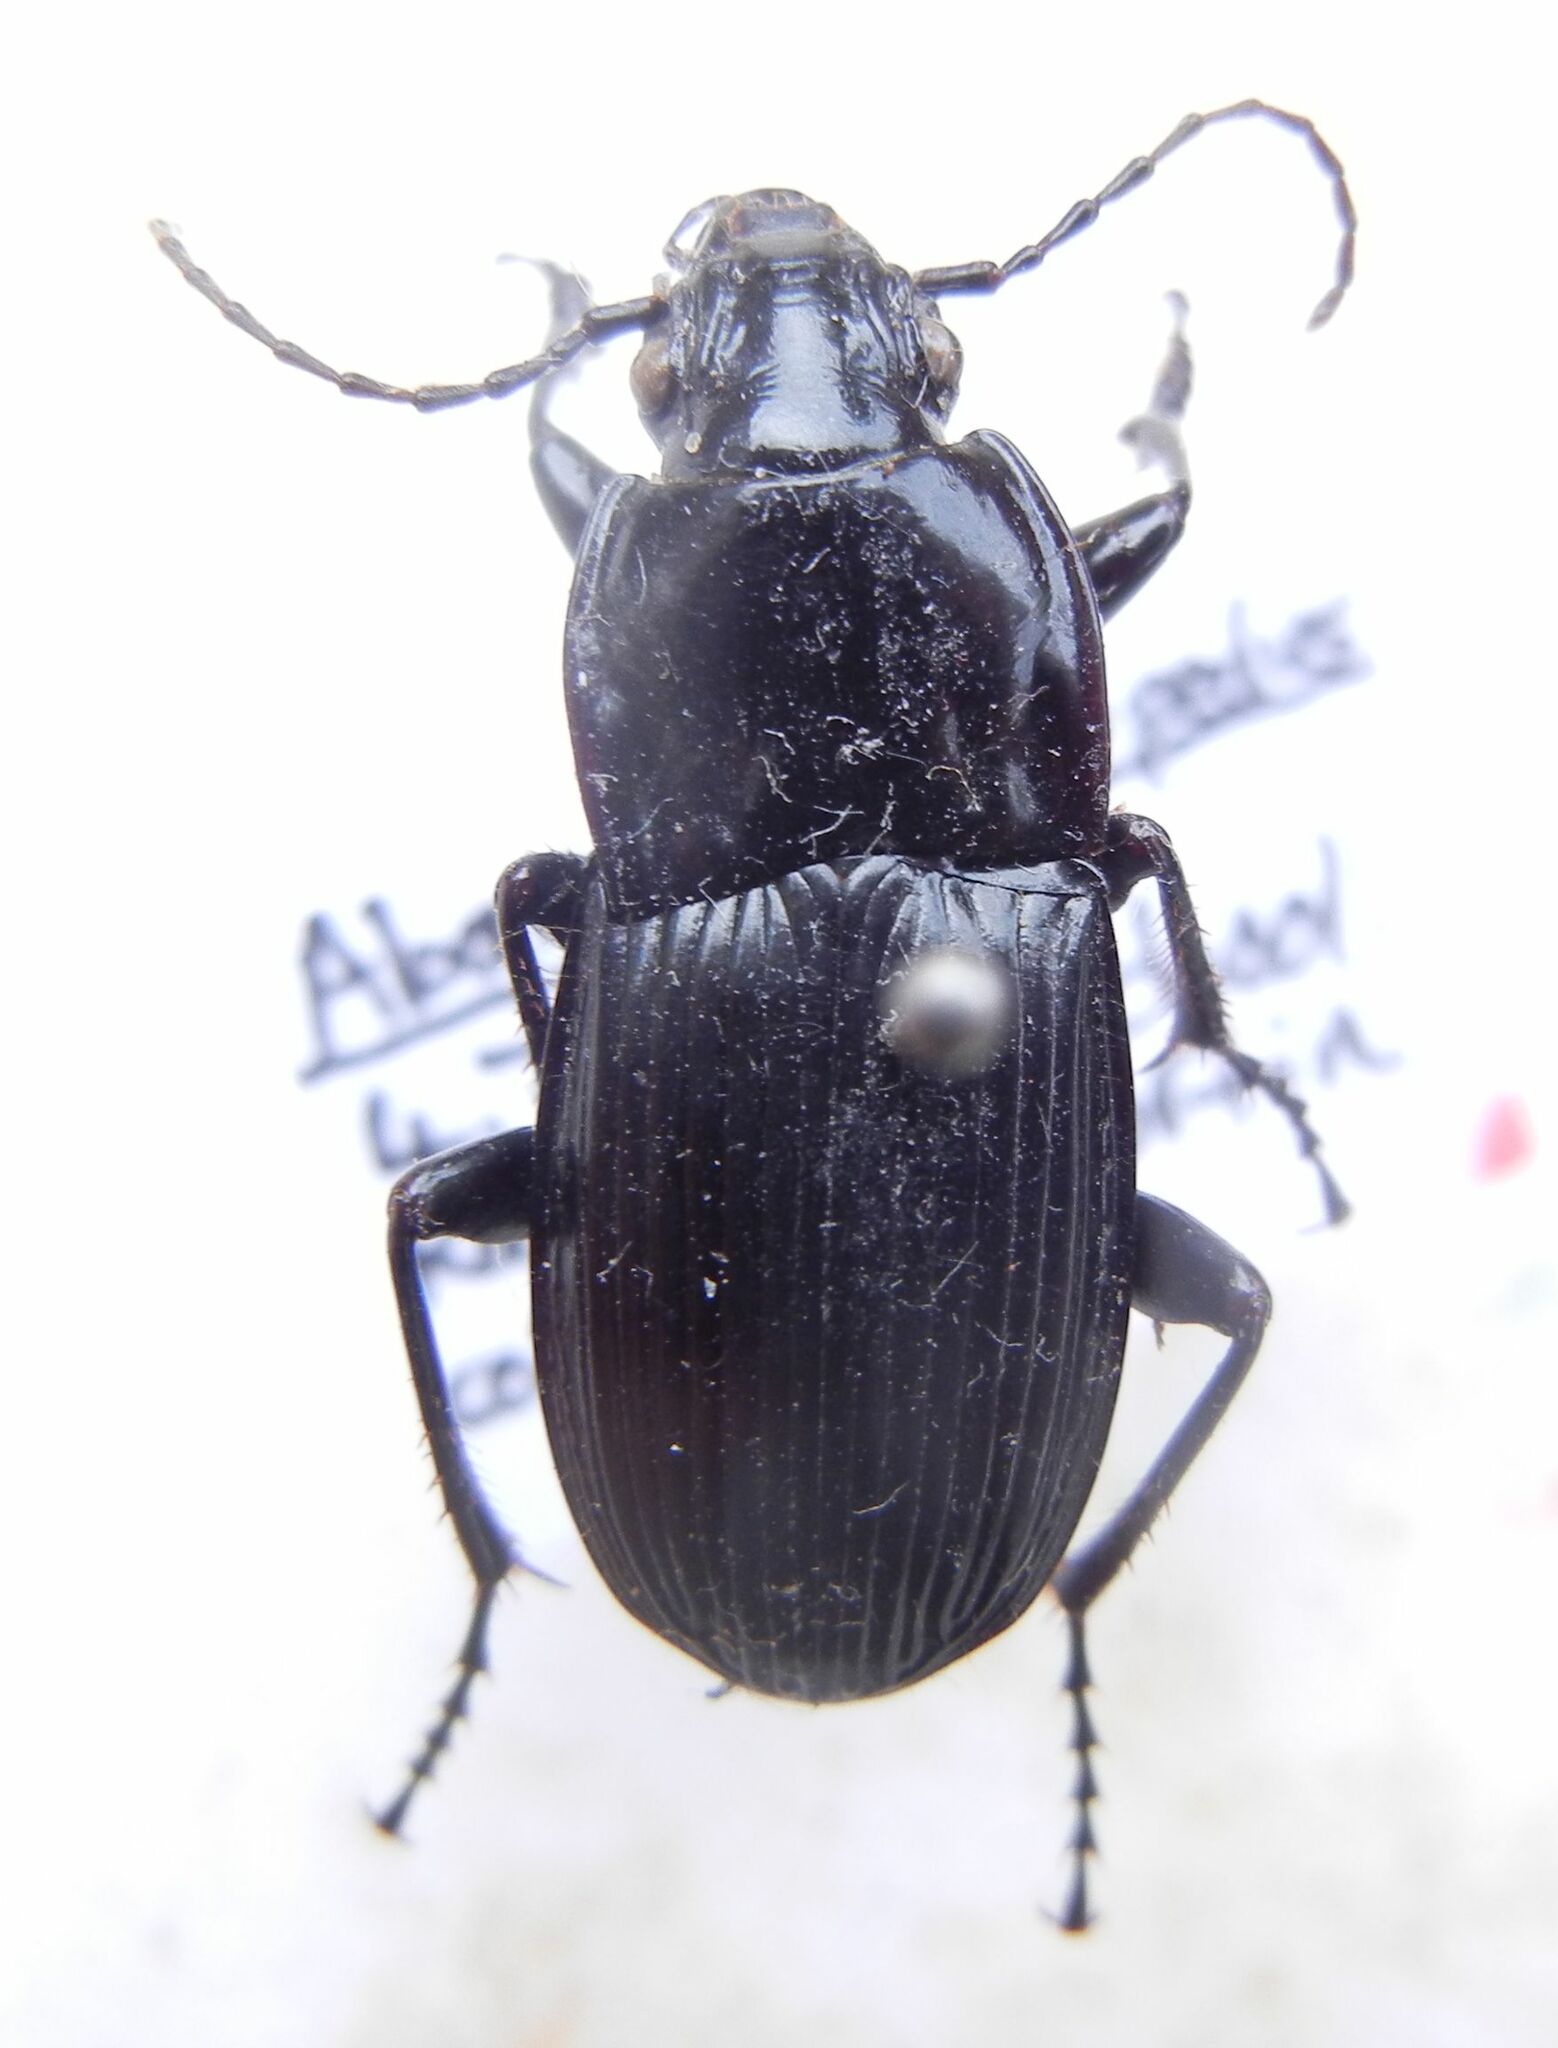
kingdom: Animalia
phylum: Arthropoda
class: Insecta
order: Coleoptera
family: Carabidae
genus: Abax
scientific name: Abax parallelepipedus
